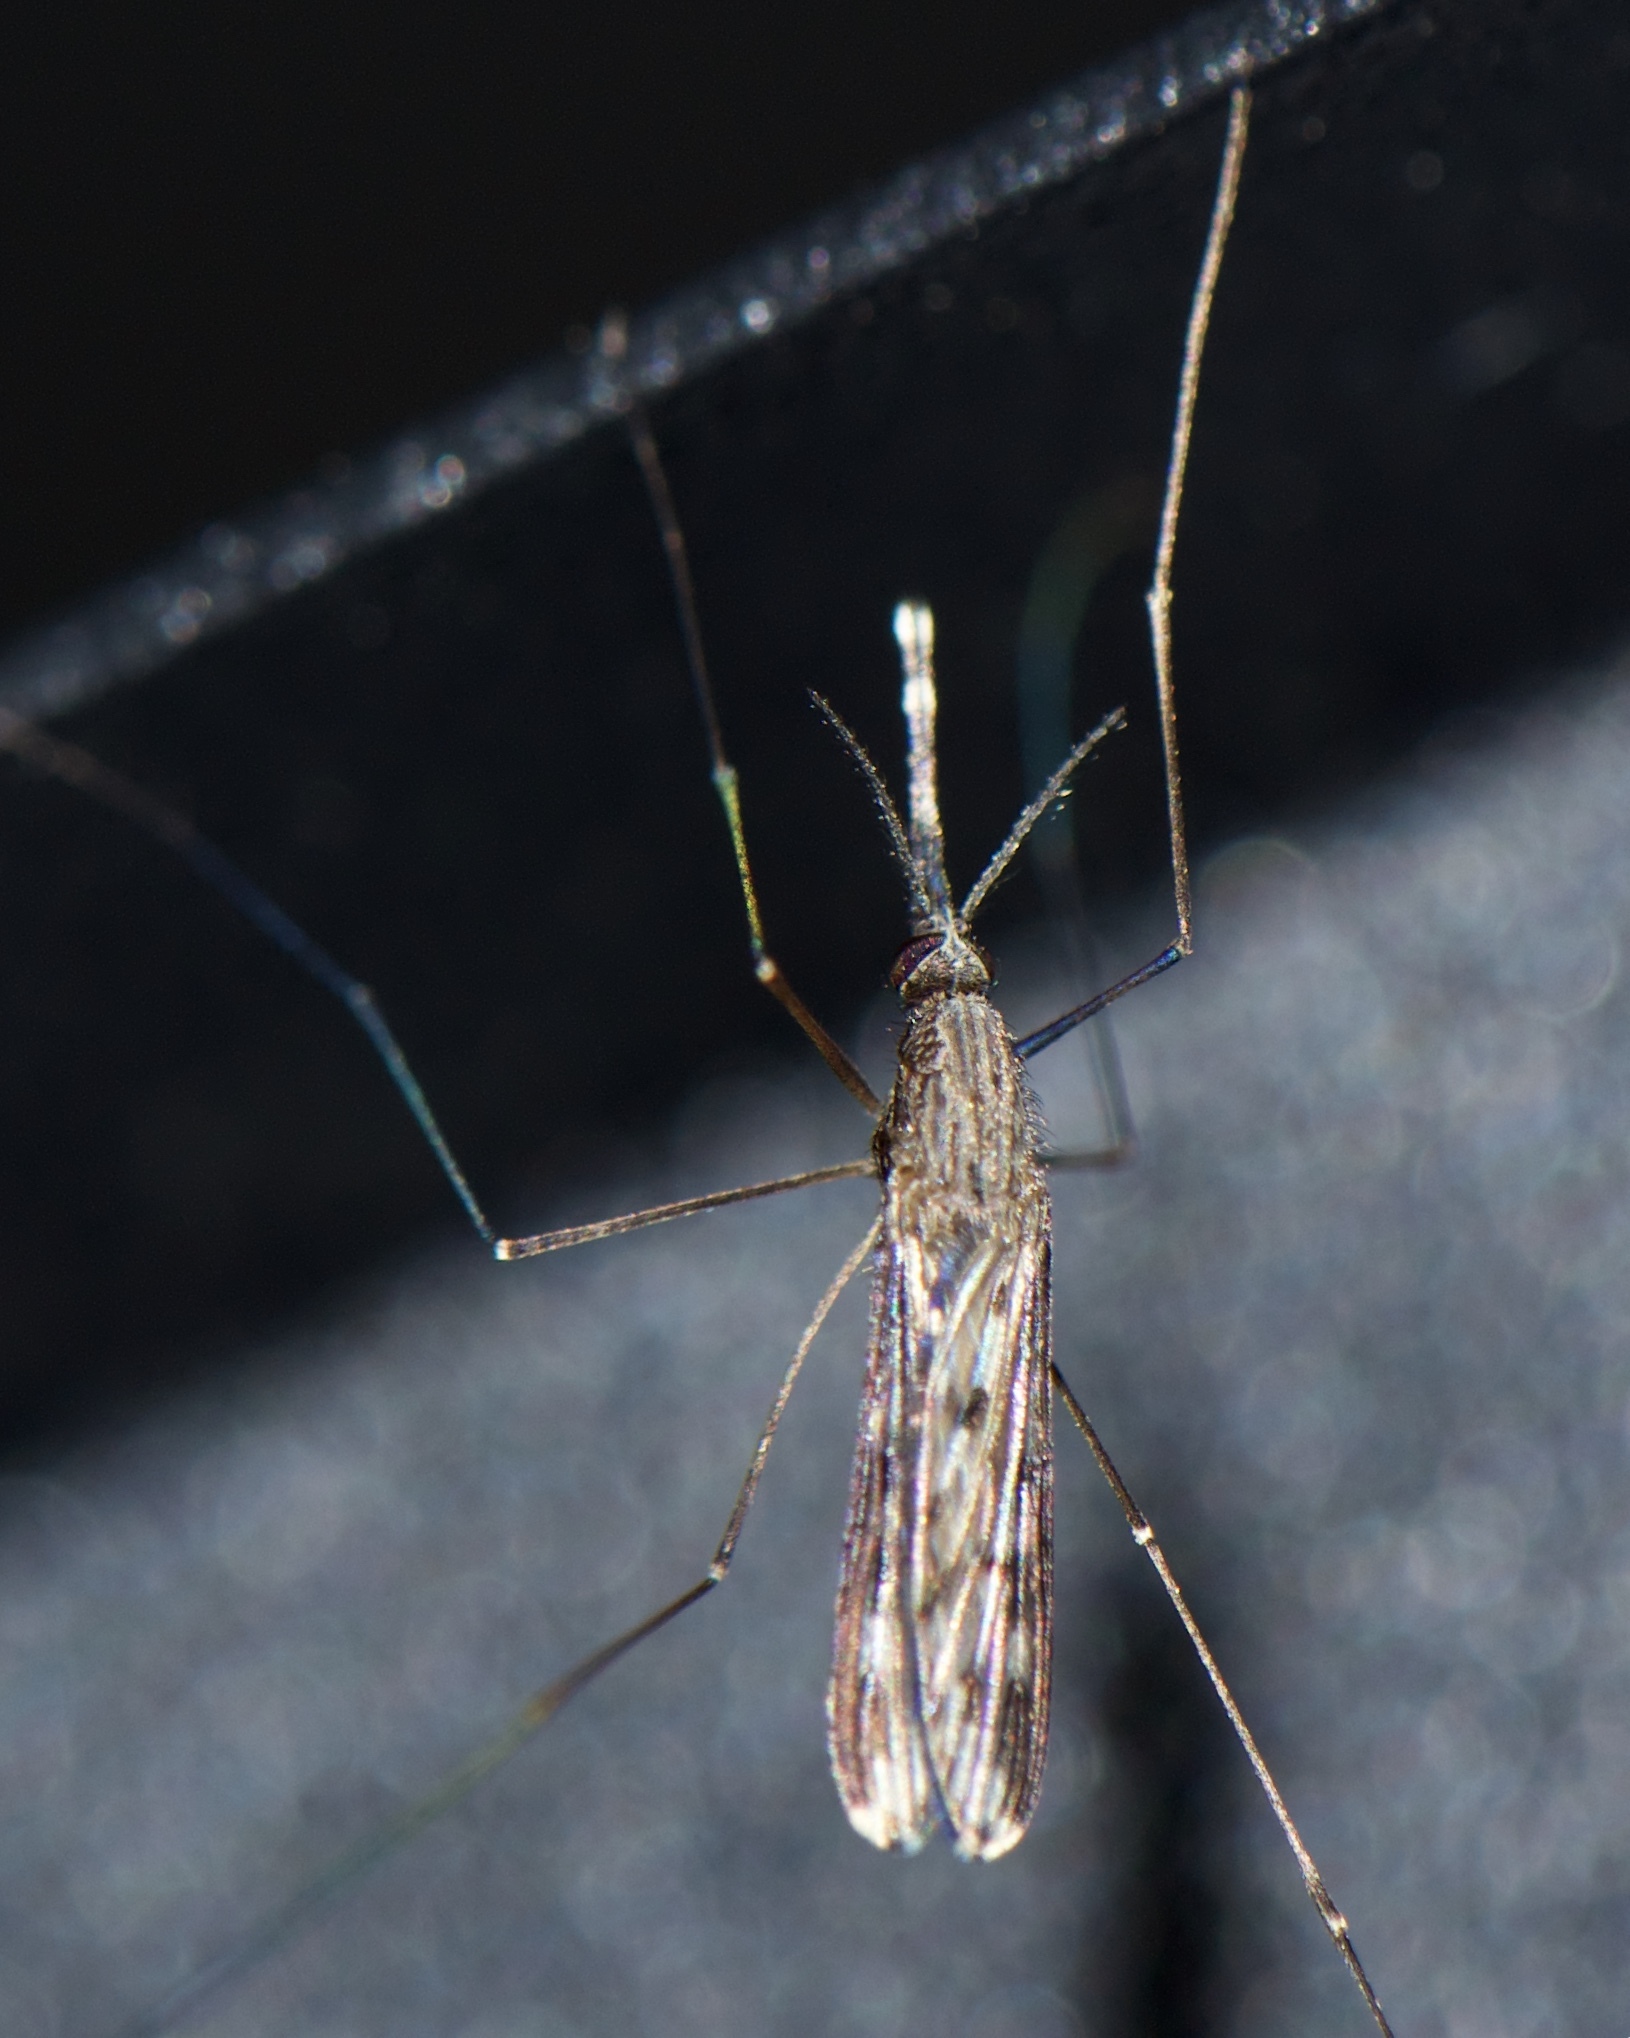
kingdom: Animalia
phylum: Arthropoda
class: Insecta
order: Diptera
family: Culicidae
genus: Anopheles
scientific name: Anopheles crucians
